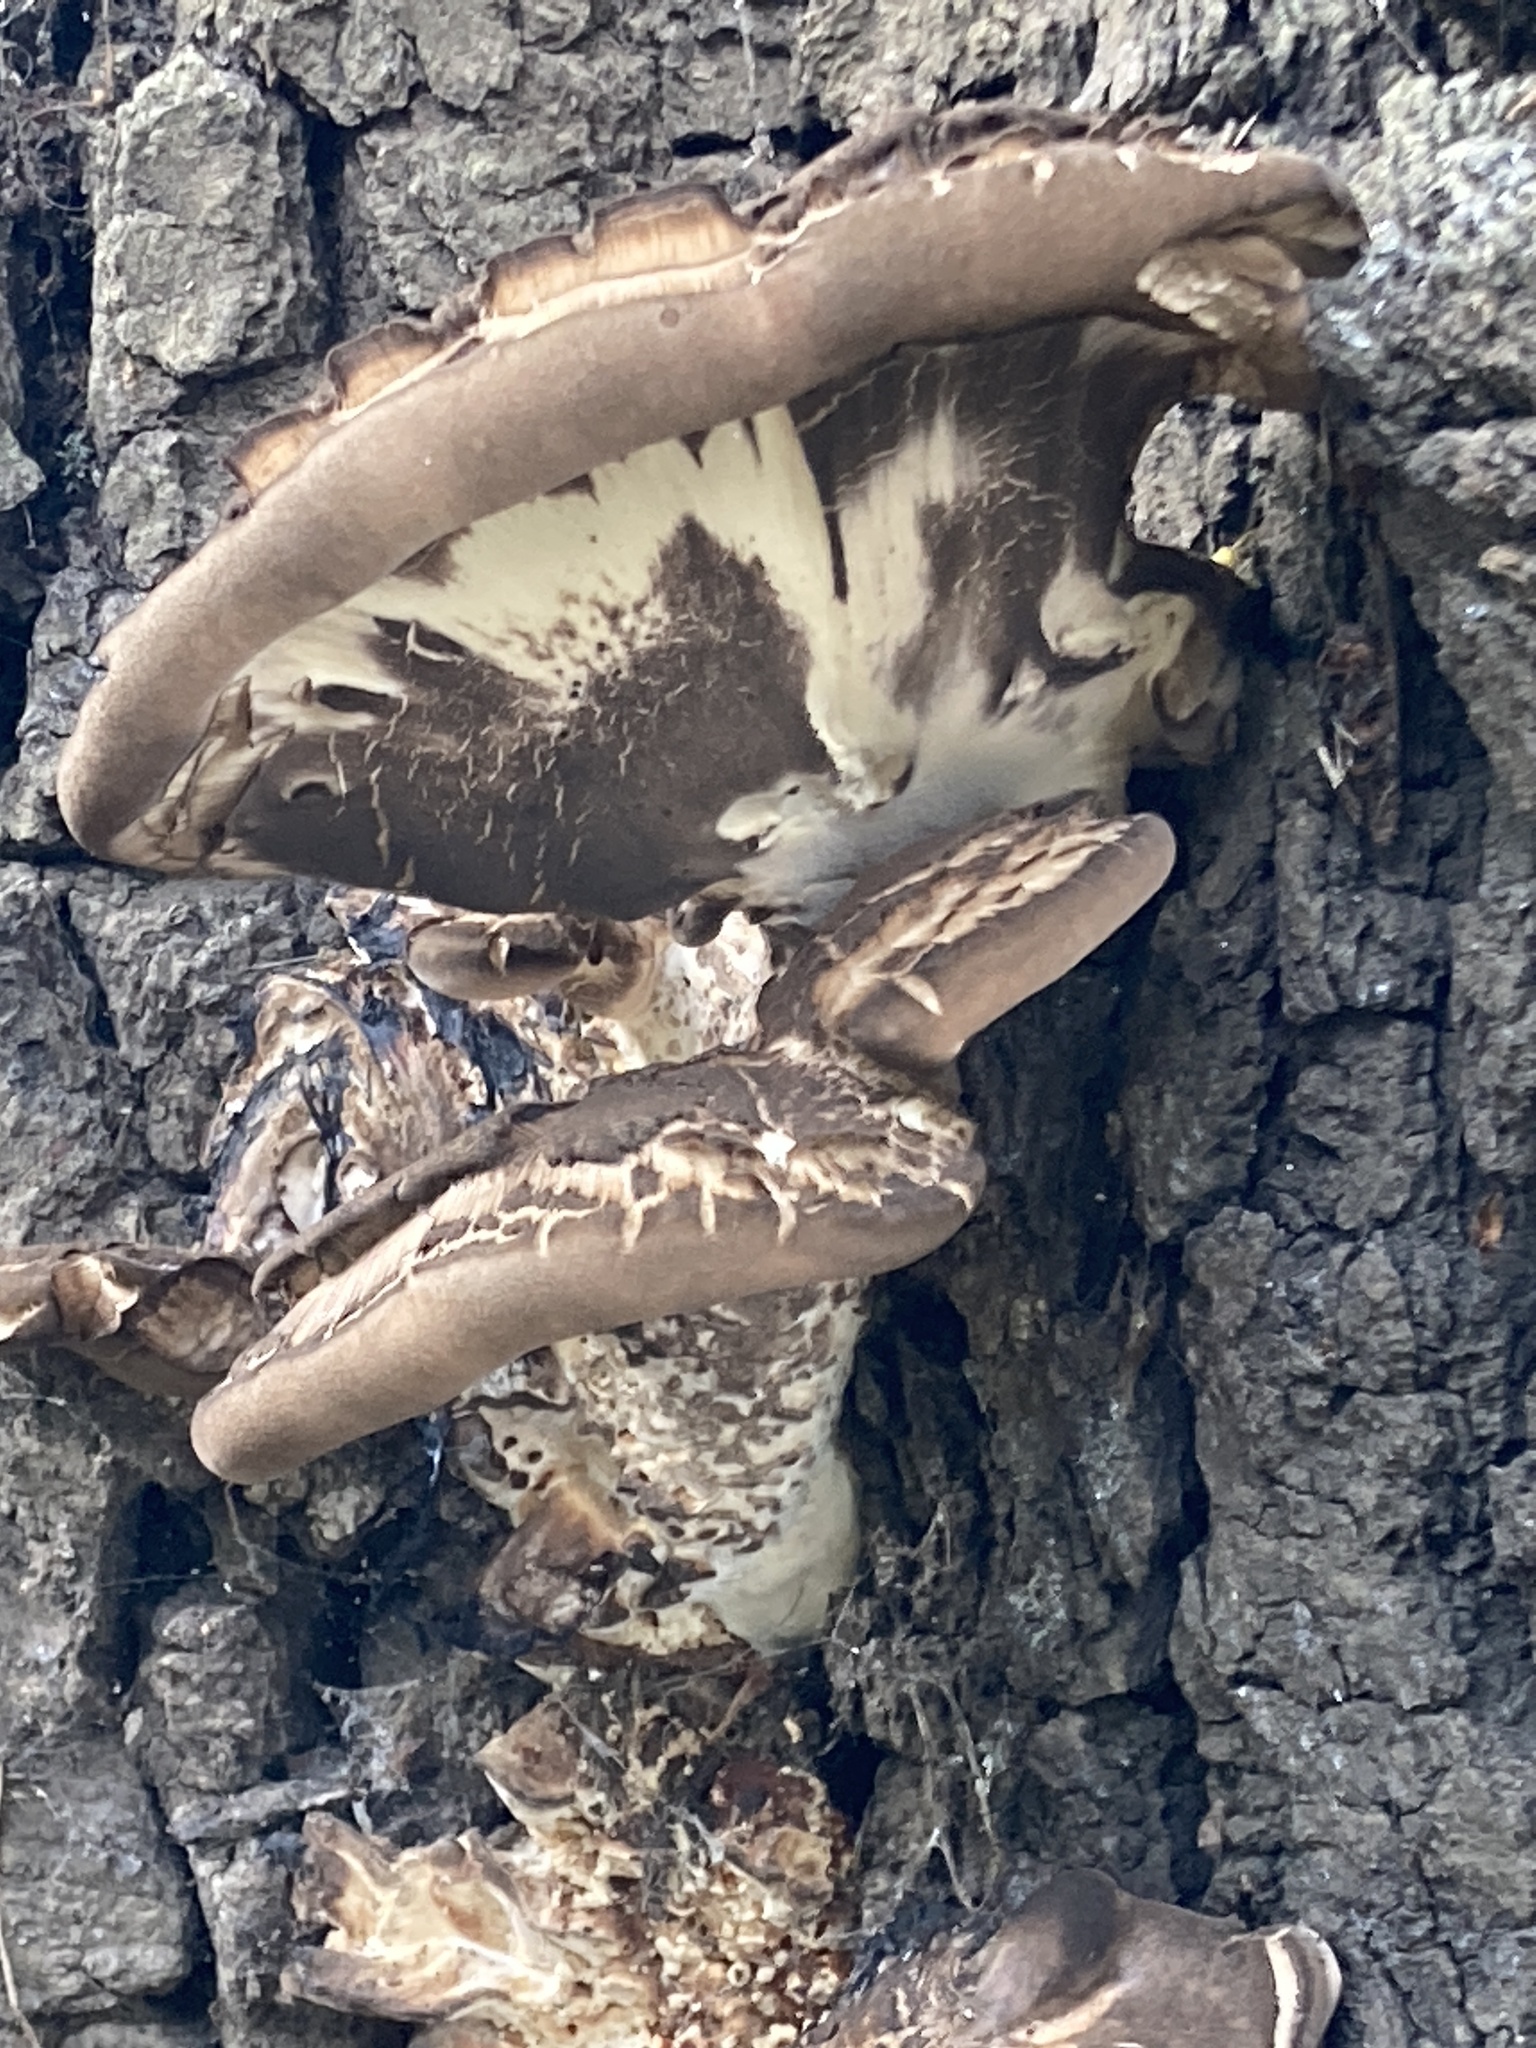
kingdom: Fungi
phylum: Basidiomycota
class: Agaricomycetes
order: Polyporales
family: Meripilaceae
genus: Meripilus
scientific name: Meripilus giganteus
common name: Giant polypore
